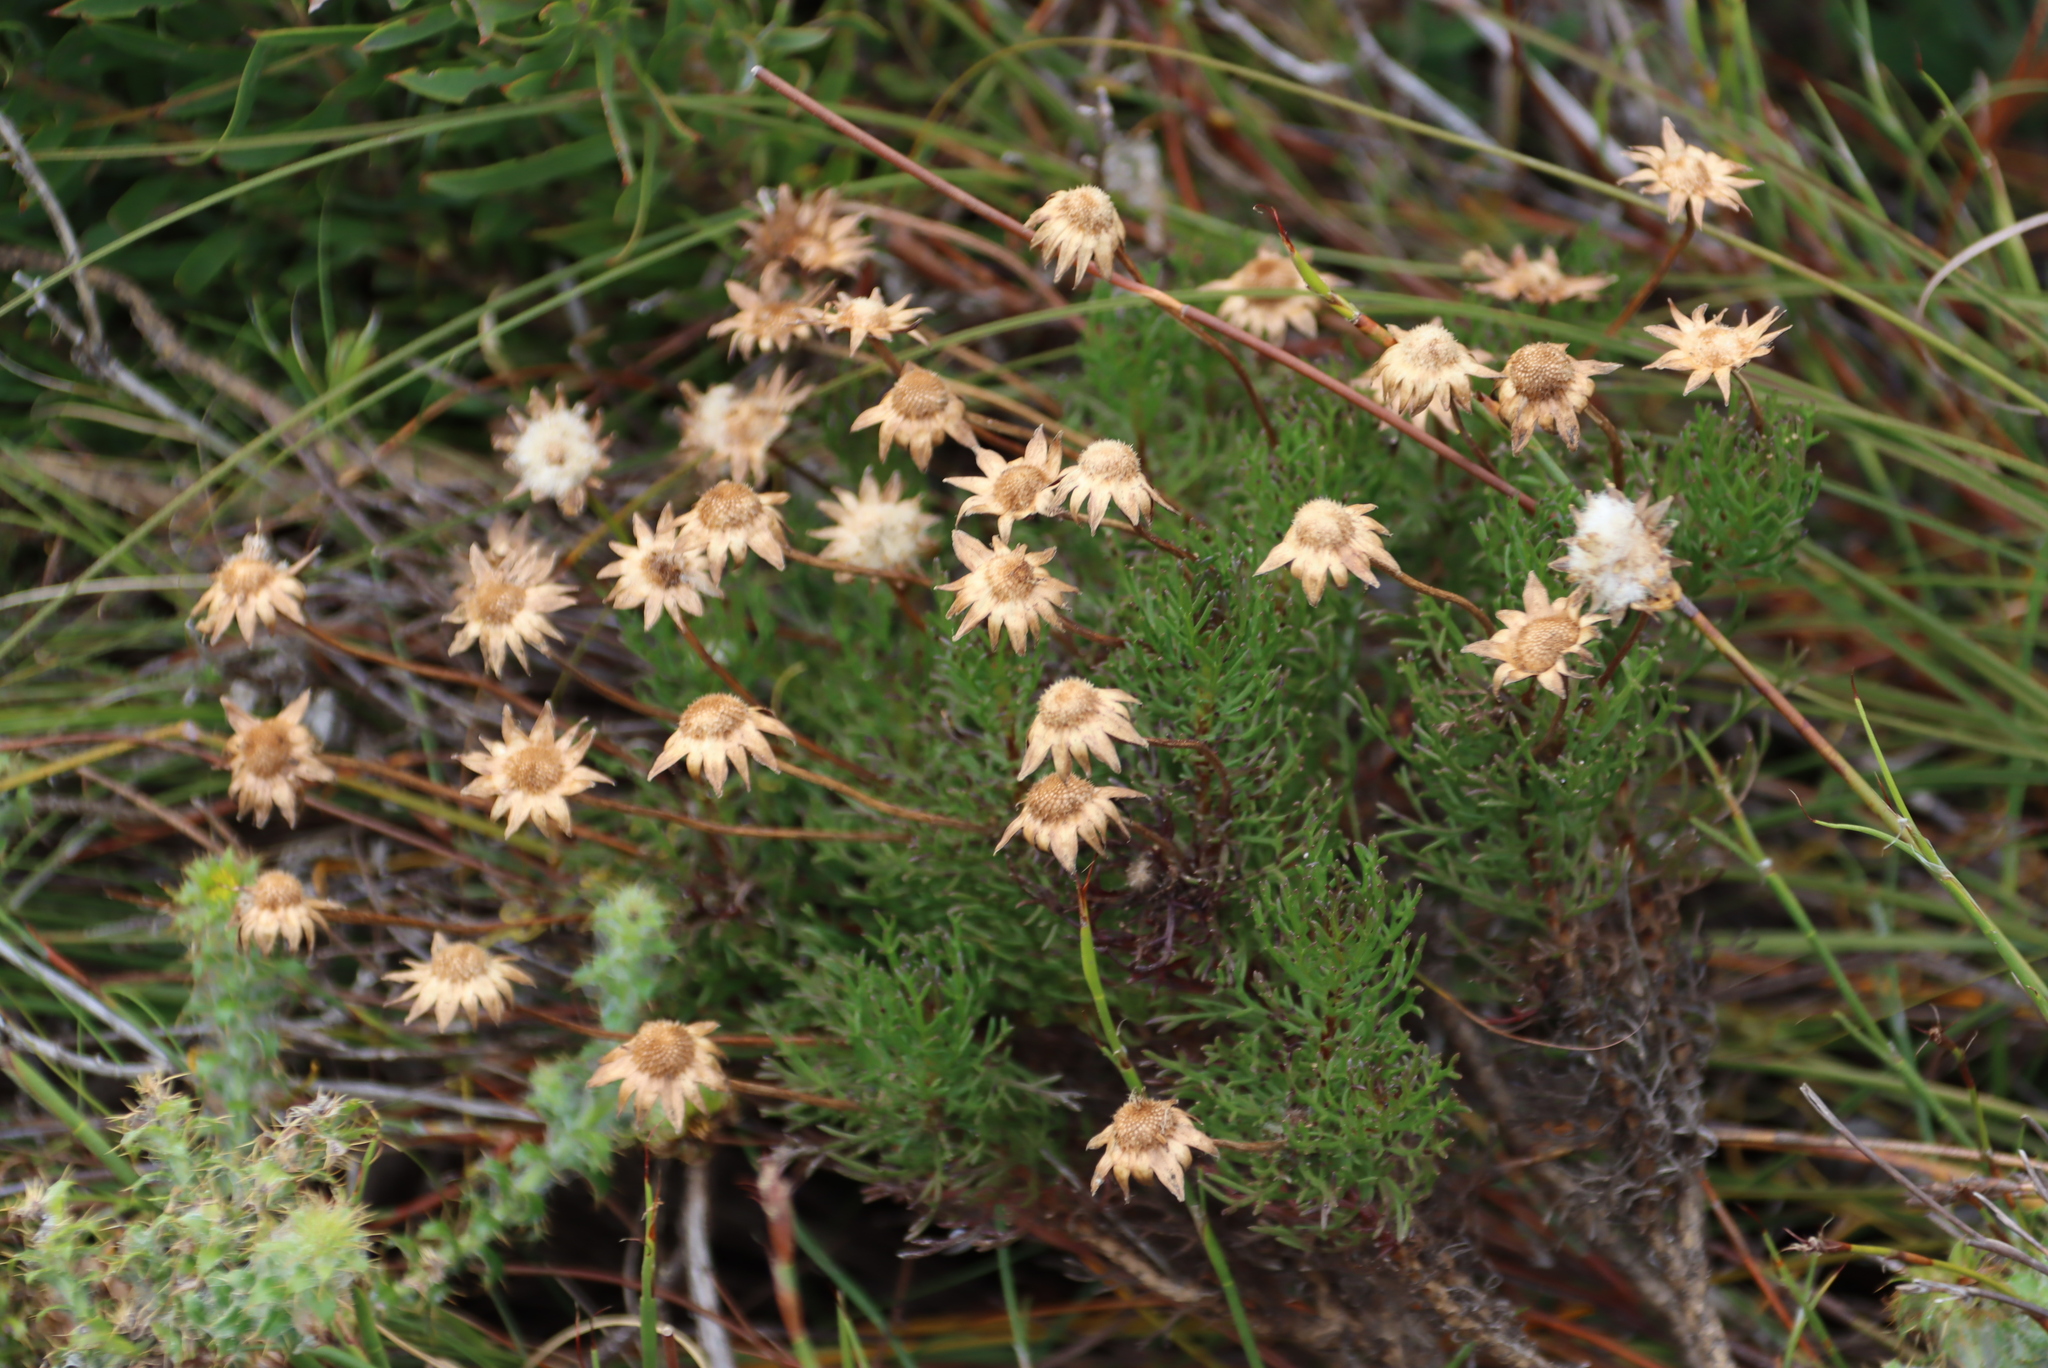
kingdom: Plantae
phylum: Tracheophyta
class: Magnoliopsida
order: Asterales
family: Asteraceae
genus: Euryops
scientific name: Euryops abrotanifolius
